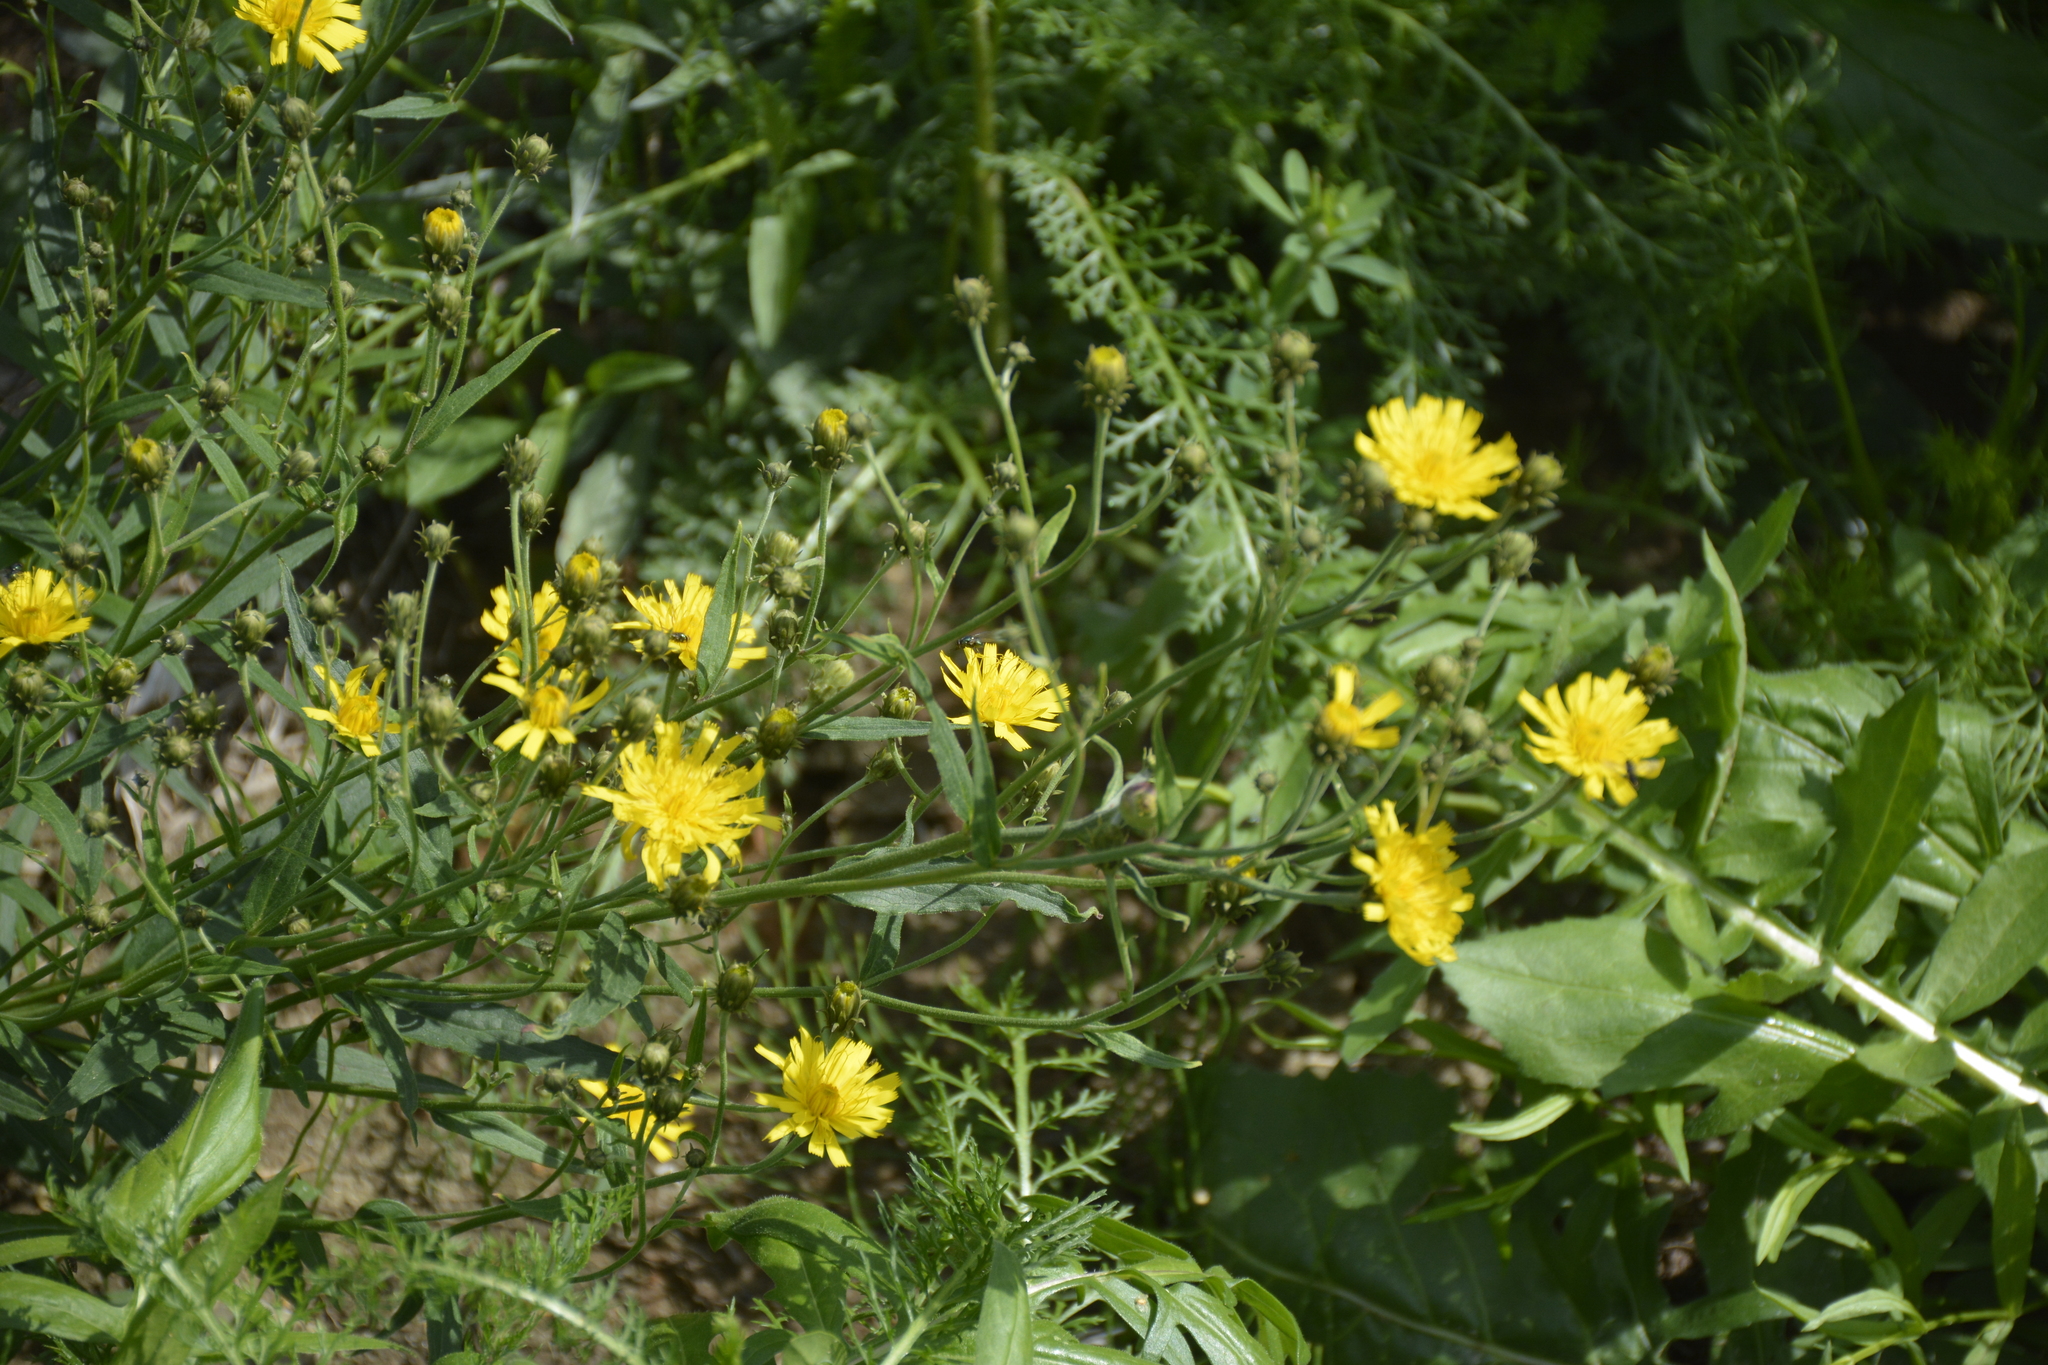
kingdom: Plantae
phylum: Tracheophyta
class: Magnoliopsida
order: Asterales
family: Asteraceae
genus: Hieracium
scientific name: Hieracium umbellatum
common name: Northern hawkweed
